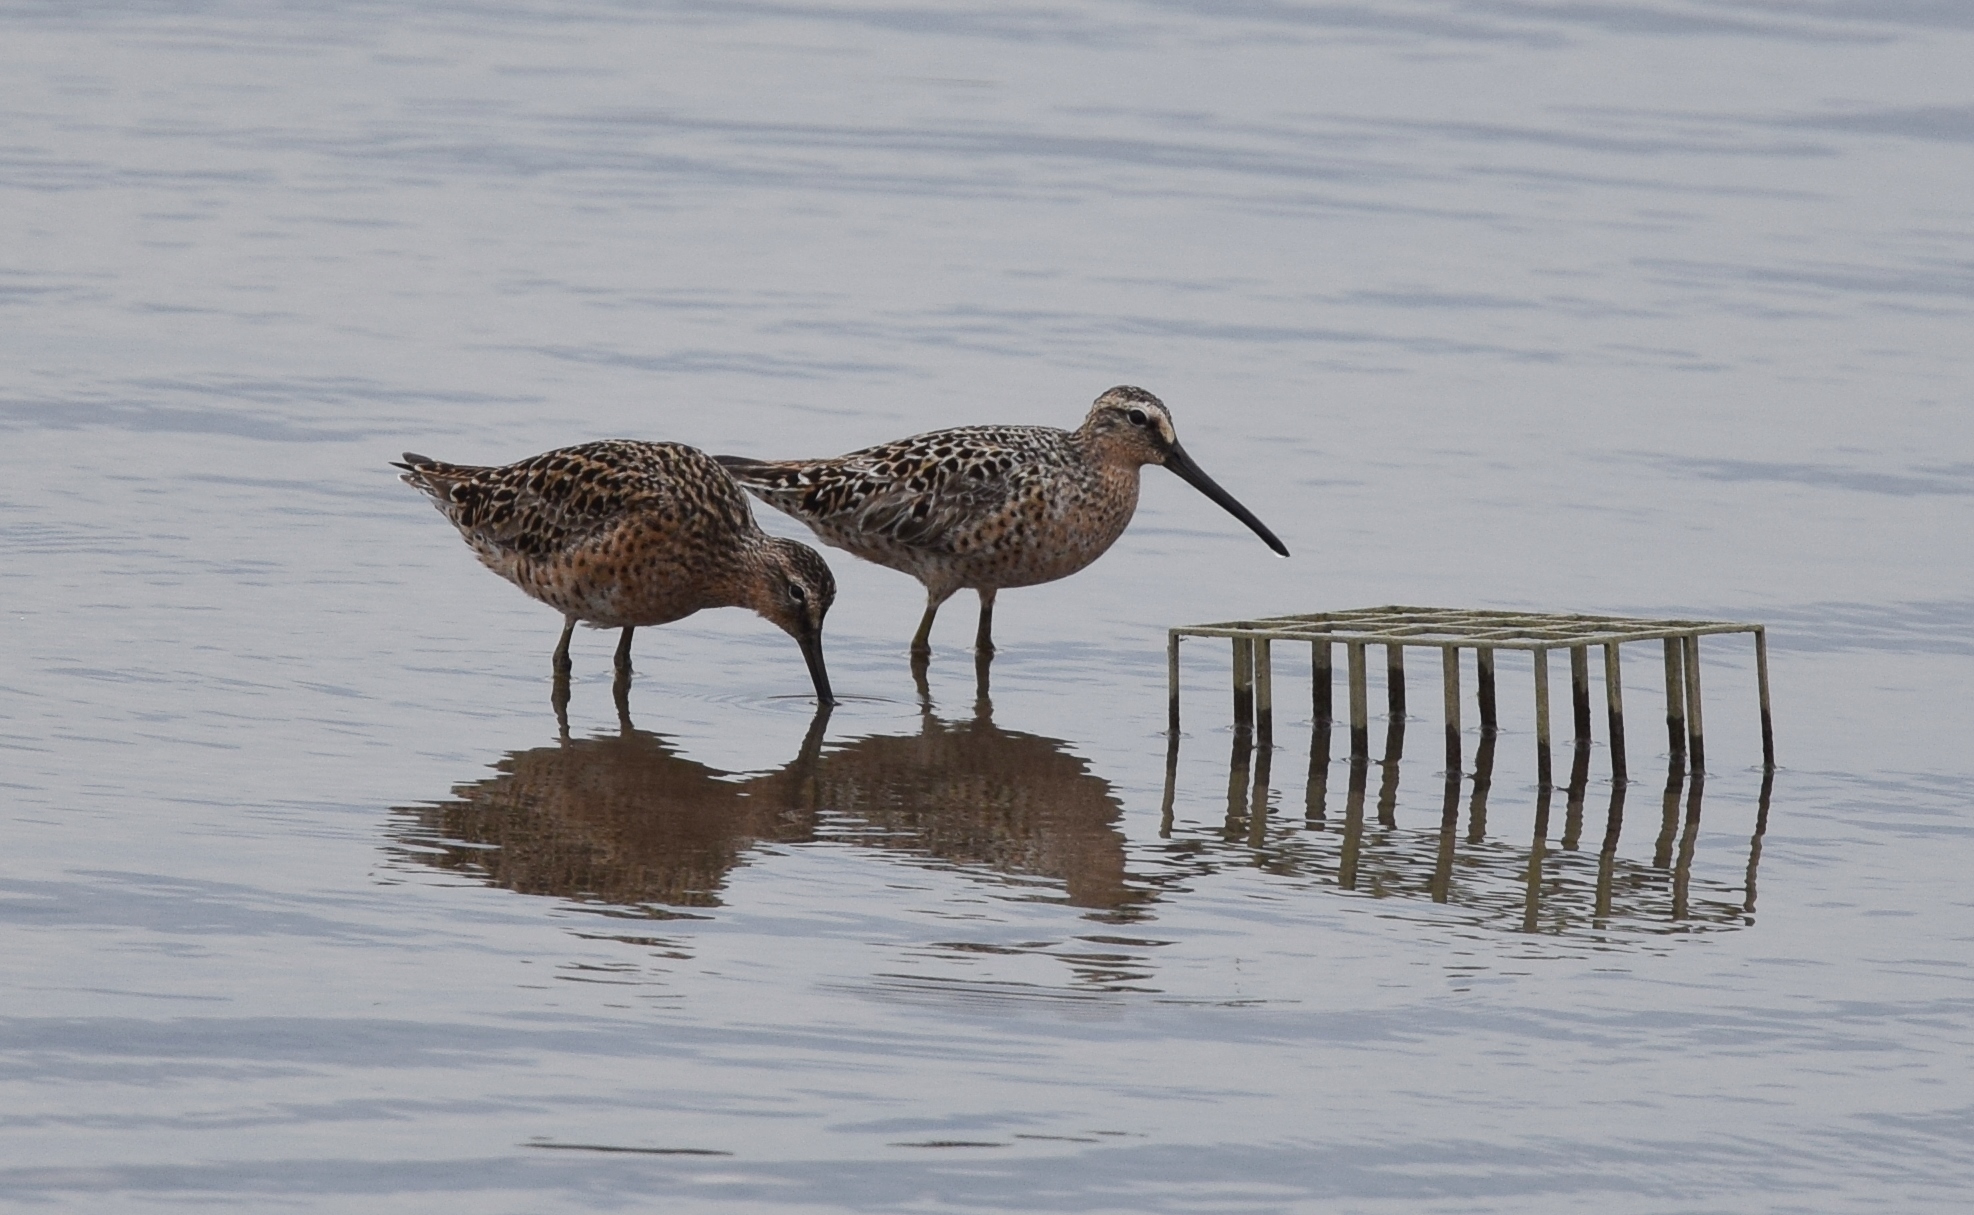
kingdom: Animalia
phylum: Chordata
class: Aves
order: Charadriiformes
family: Scolopacidae
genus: Limnodromus
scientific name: Limnodromus griseus
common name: Short-billed dowitcher
